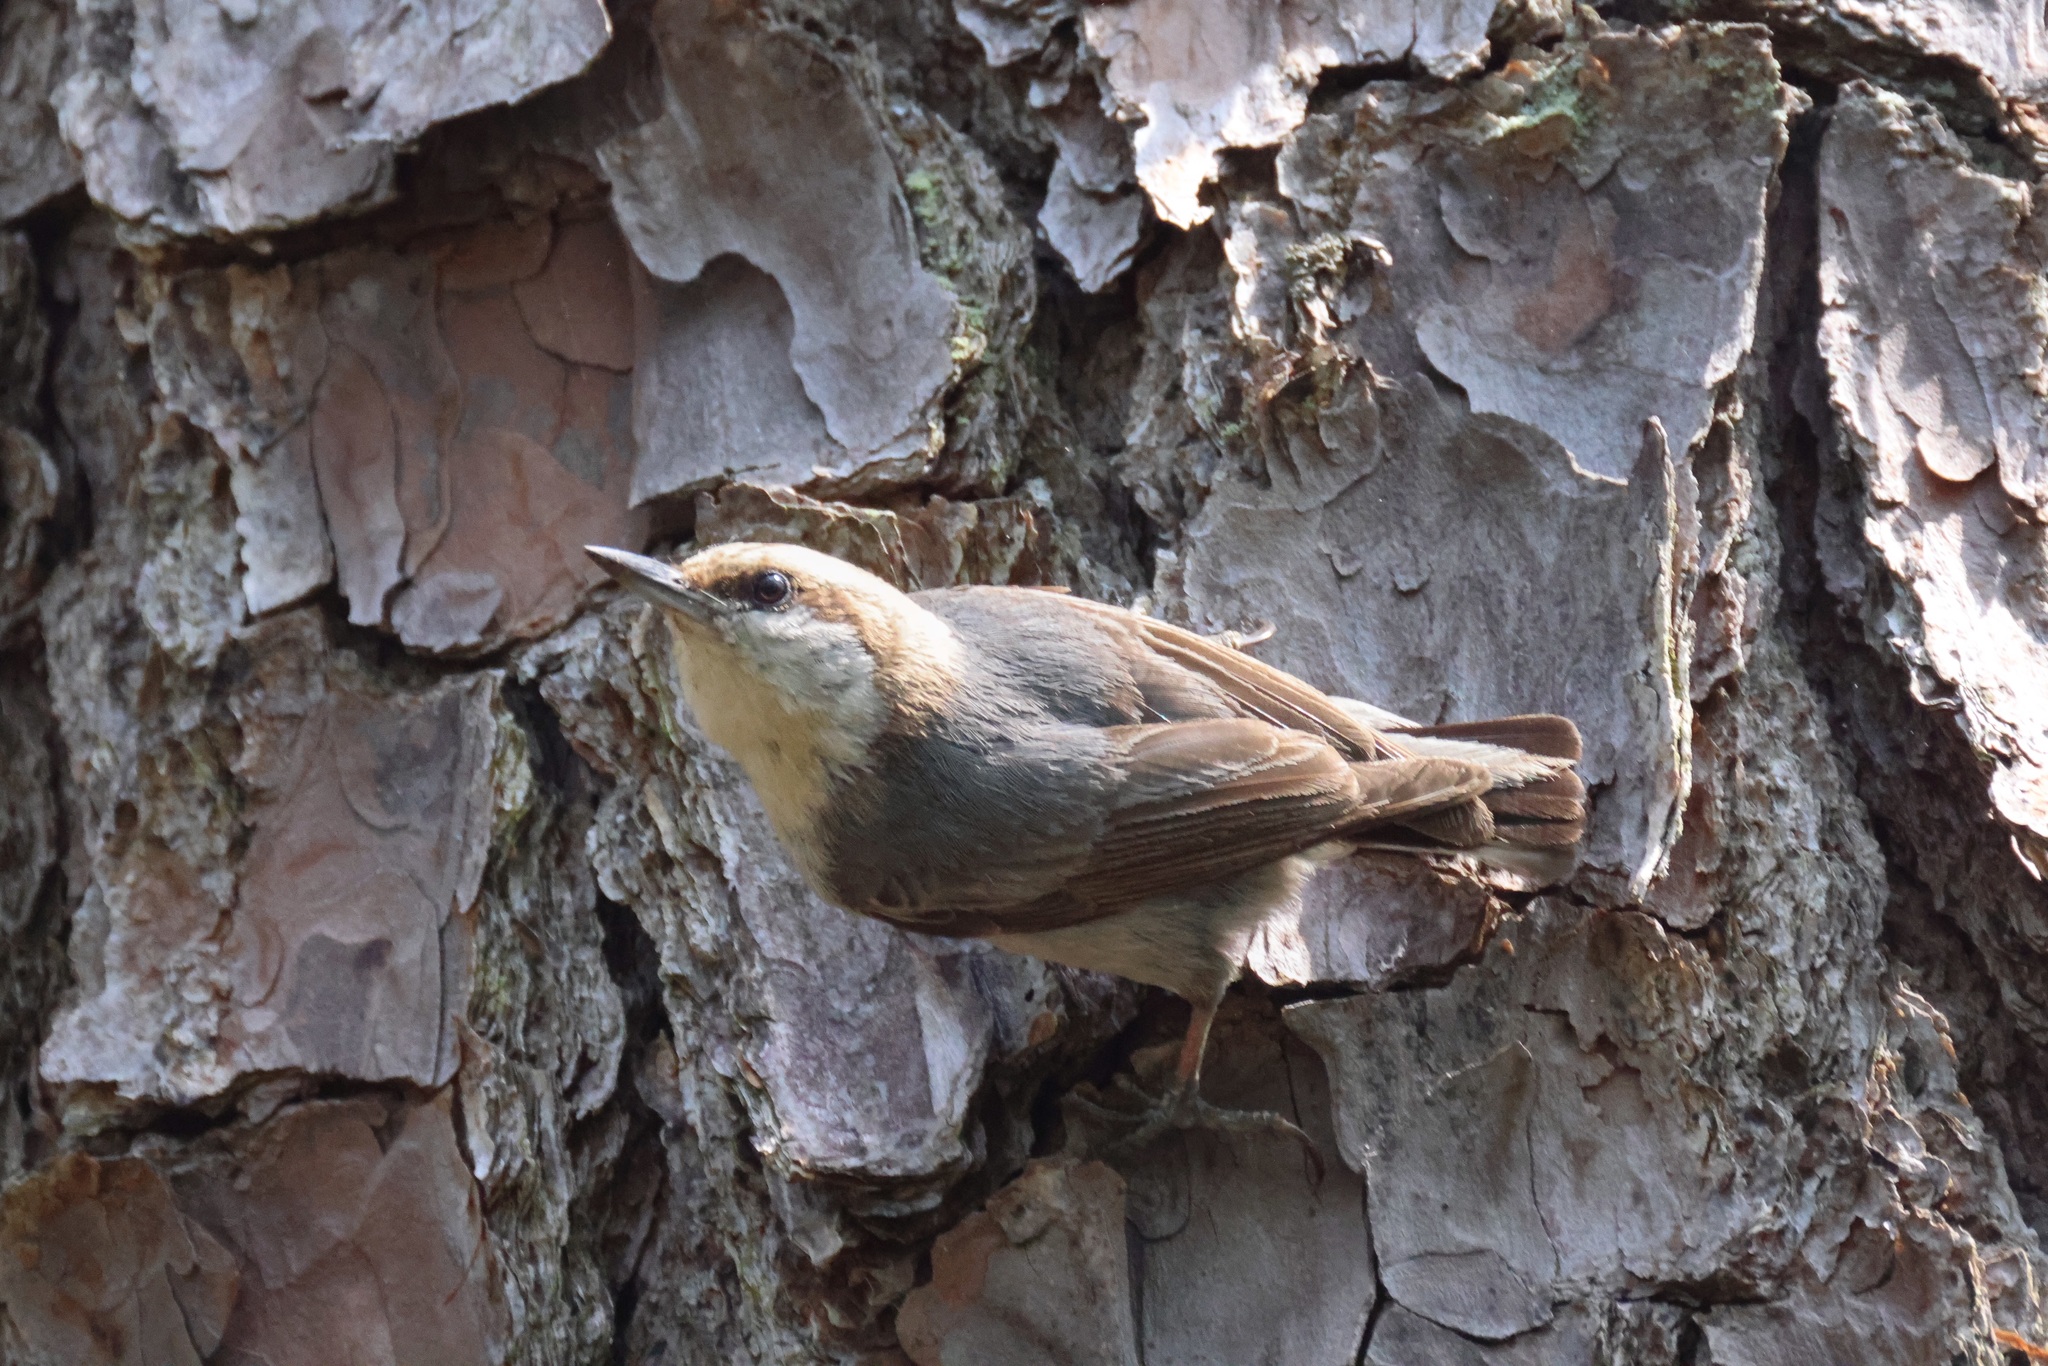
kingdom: Animalia
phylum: Chordata
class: Aves
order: Passeriformes
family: Sittidae
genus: Sitta
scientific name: Sitta pusilla
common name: Brown-headed nuthatch
